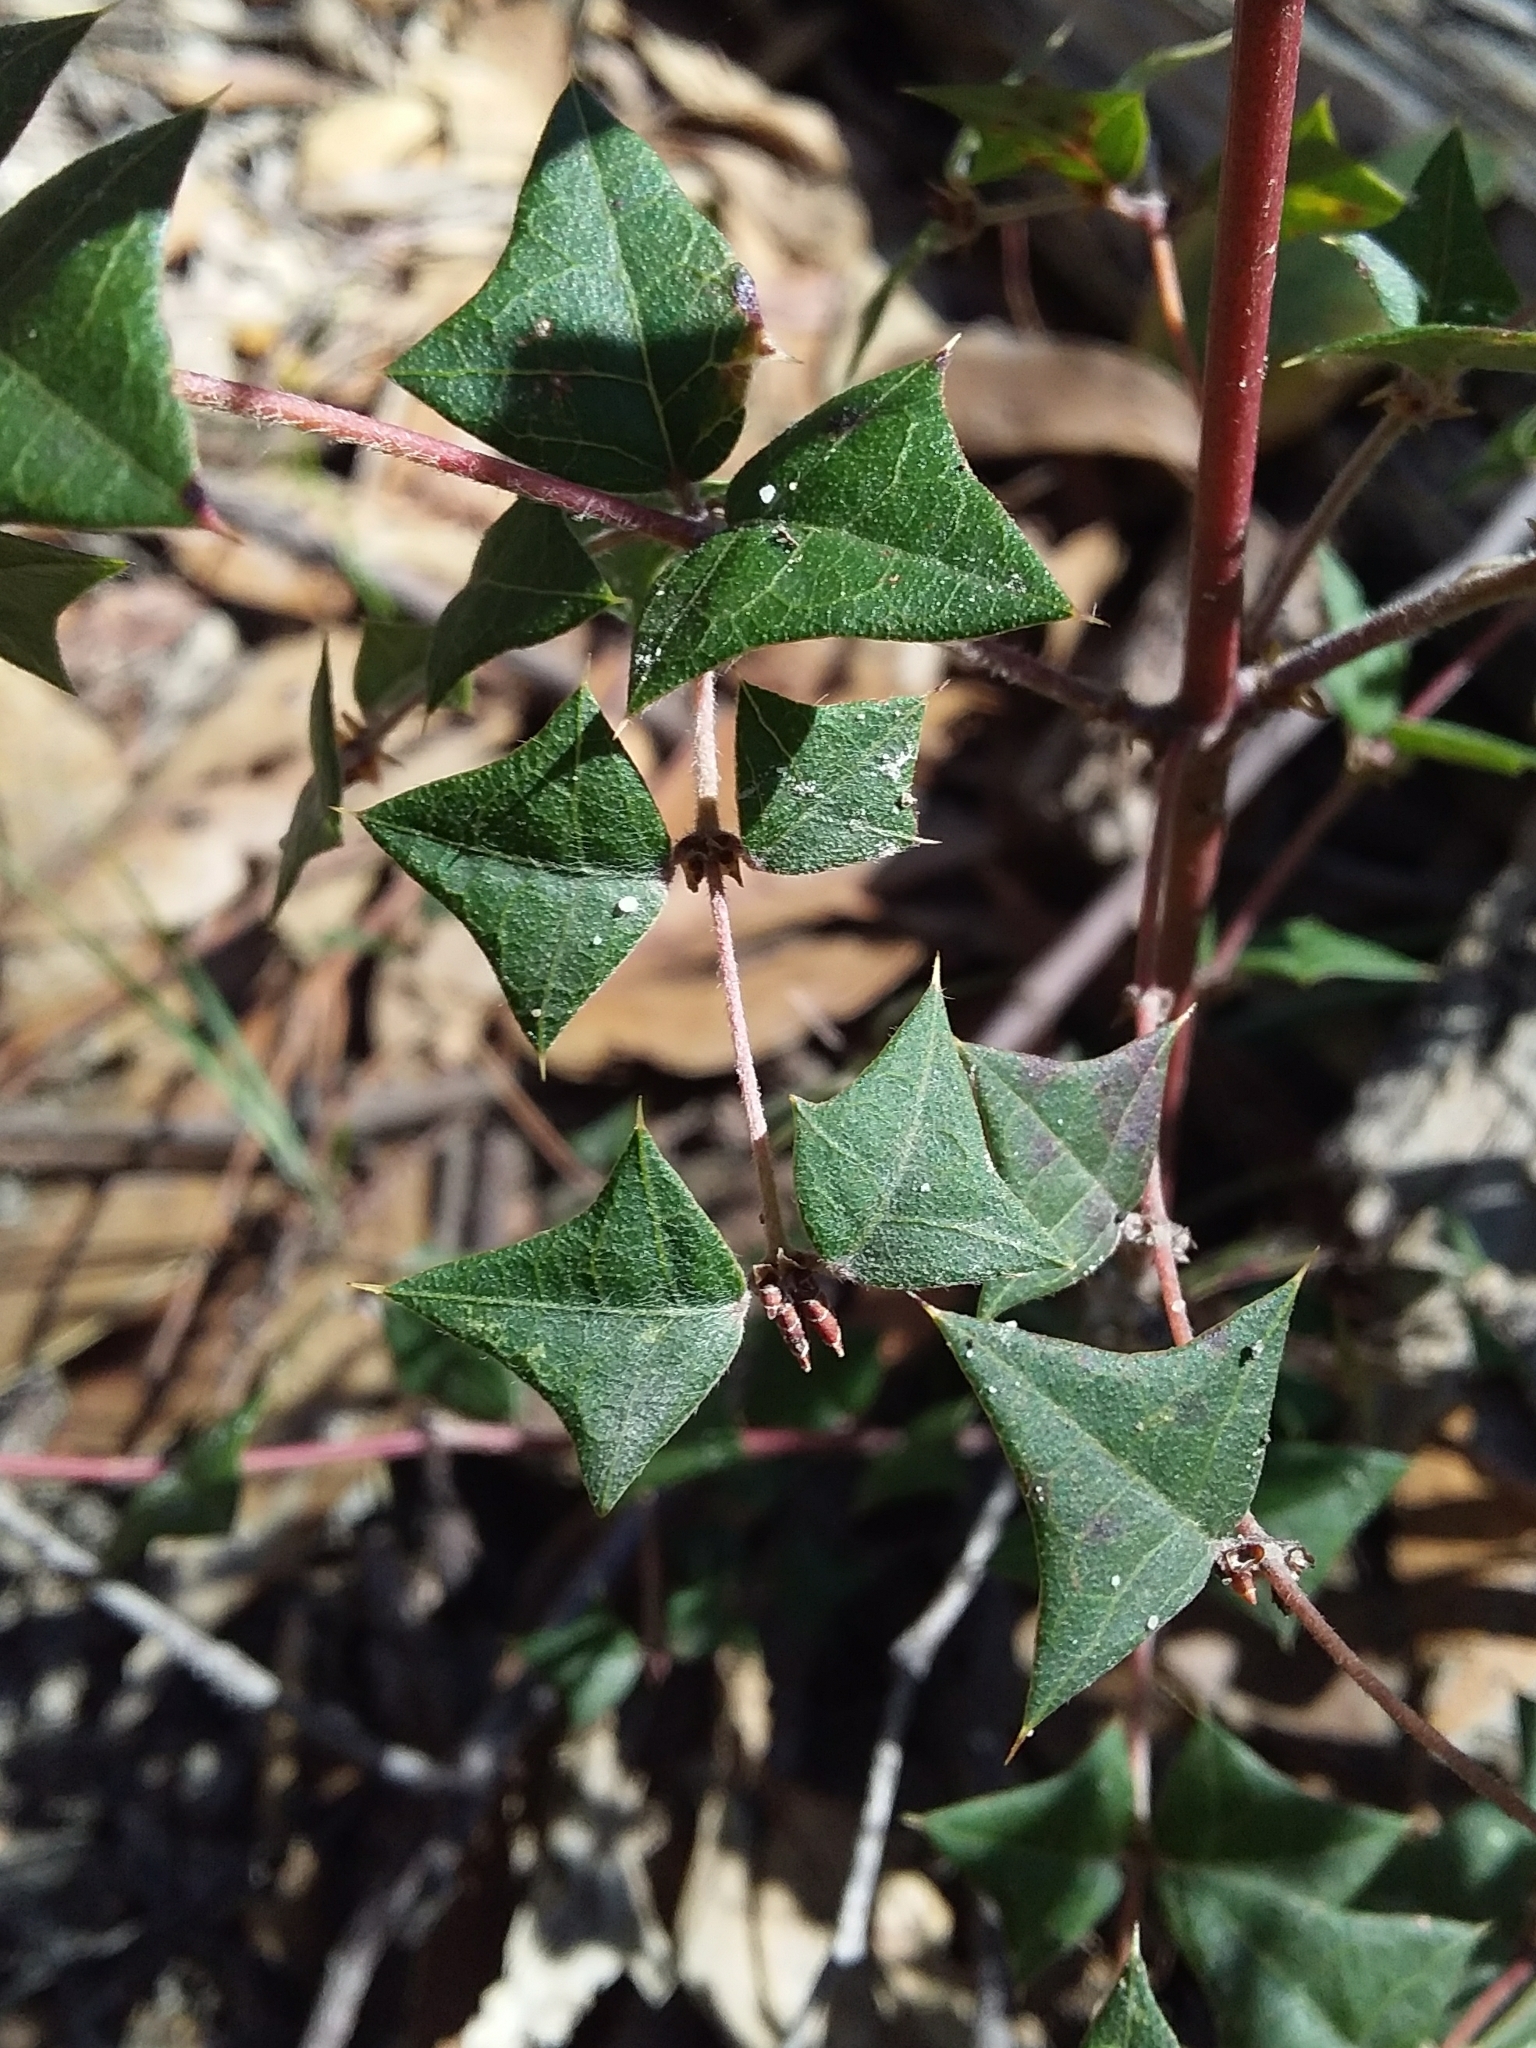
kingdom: Plantae
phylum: Tracheophyta
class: Magnoliopsida
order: Fabales
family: Fabaceae
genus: Platylobium
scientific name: Platylobium obtusangulum
